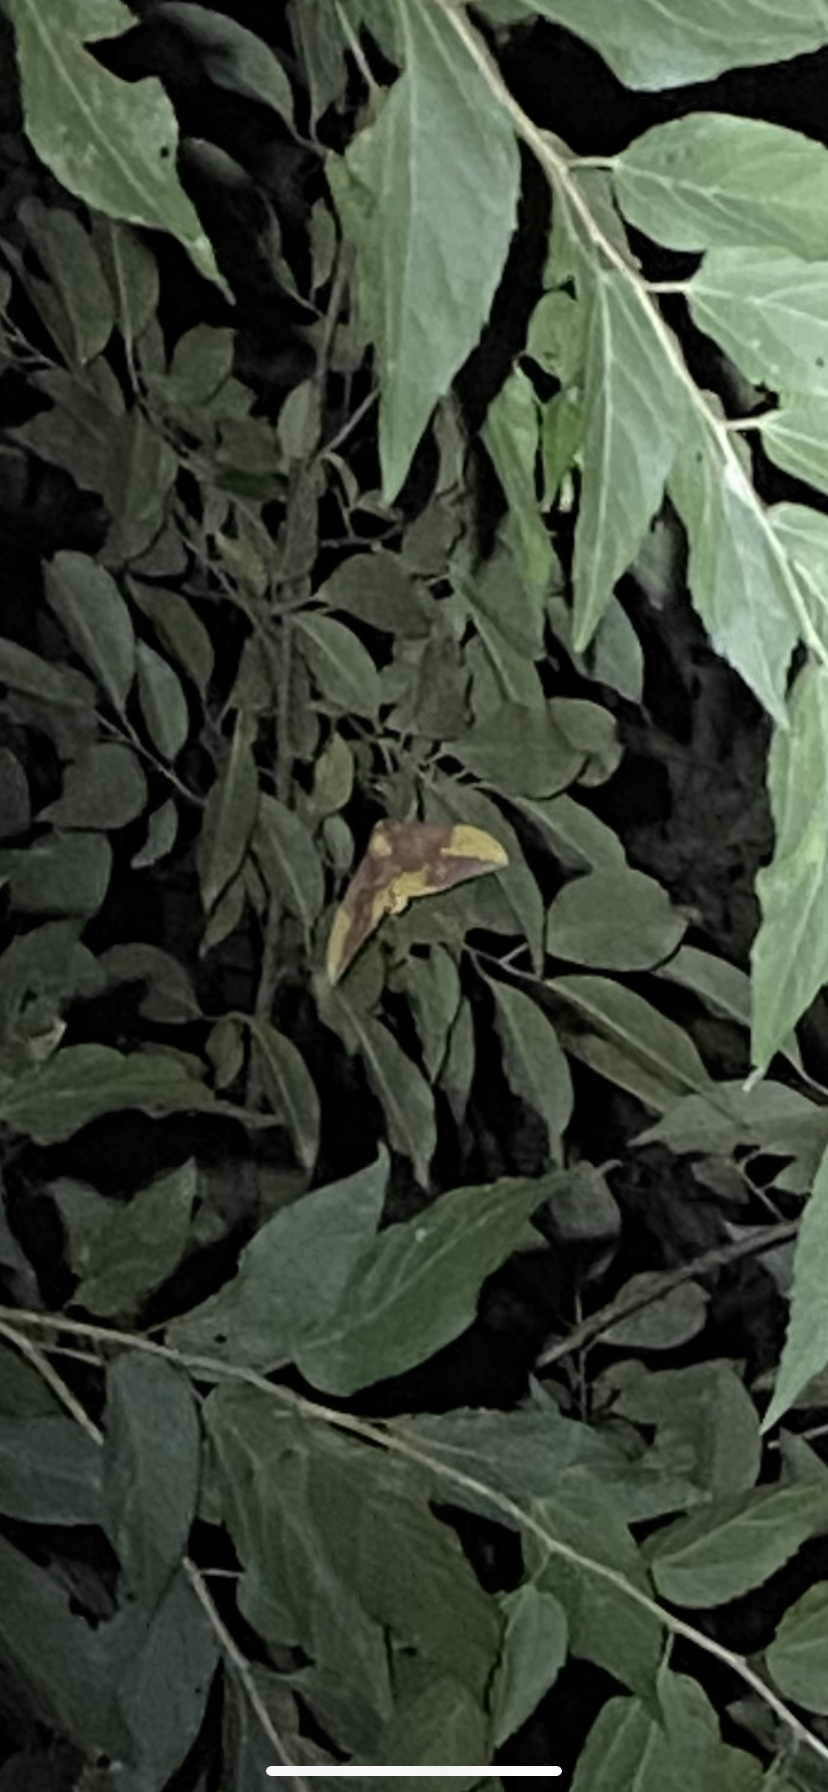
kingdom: Animalia
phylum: Arthropoda
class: Insecta
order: Lepidoptera
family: Saturniidae
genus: Eacles
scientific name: Eacles imperialis
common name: Imperial moth
